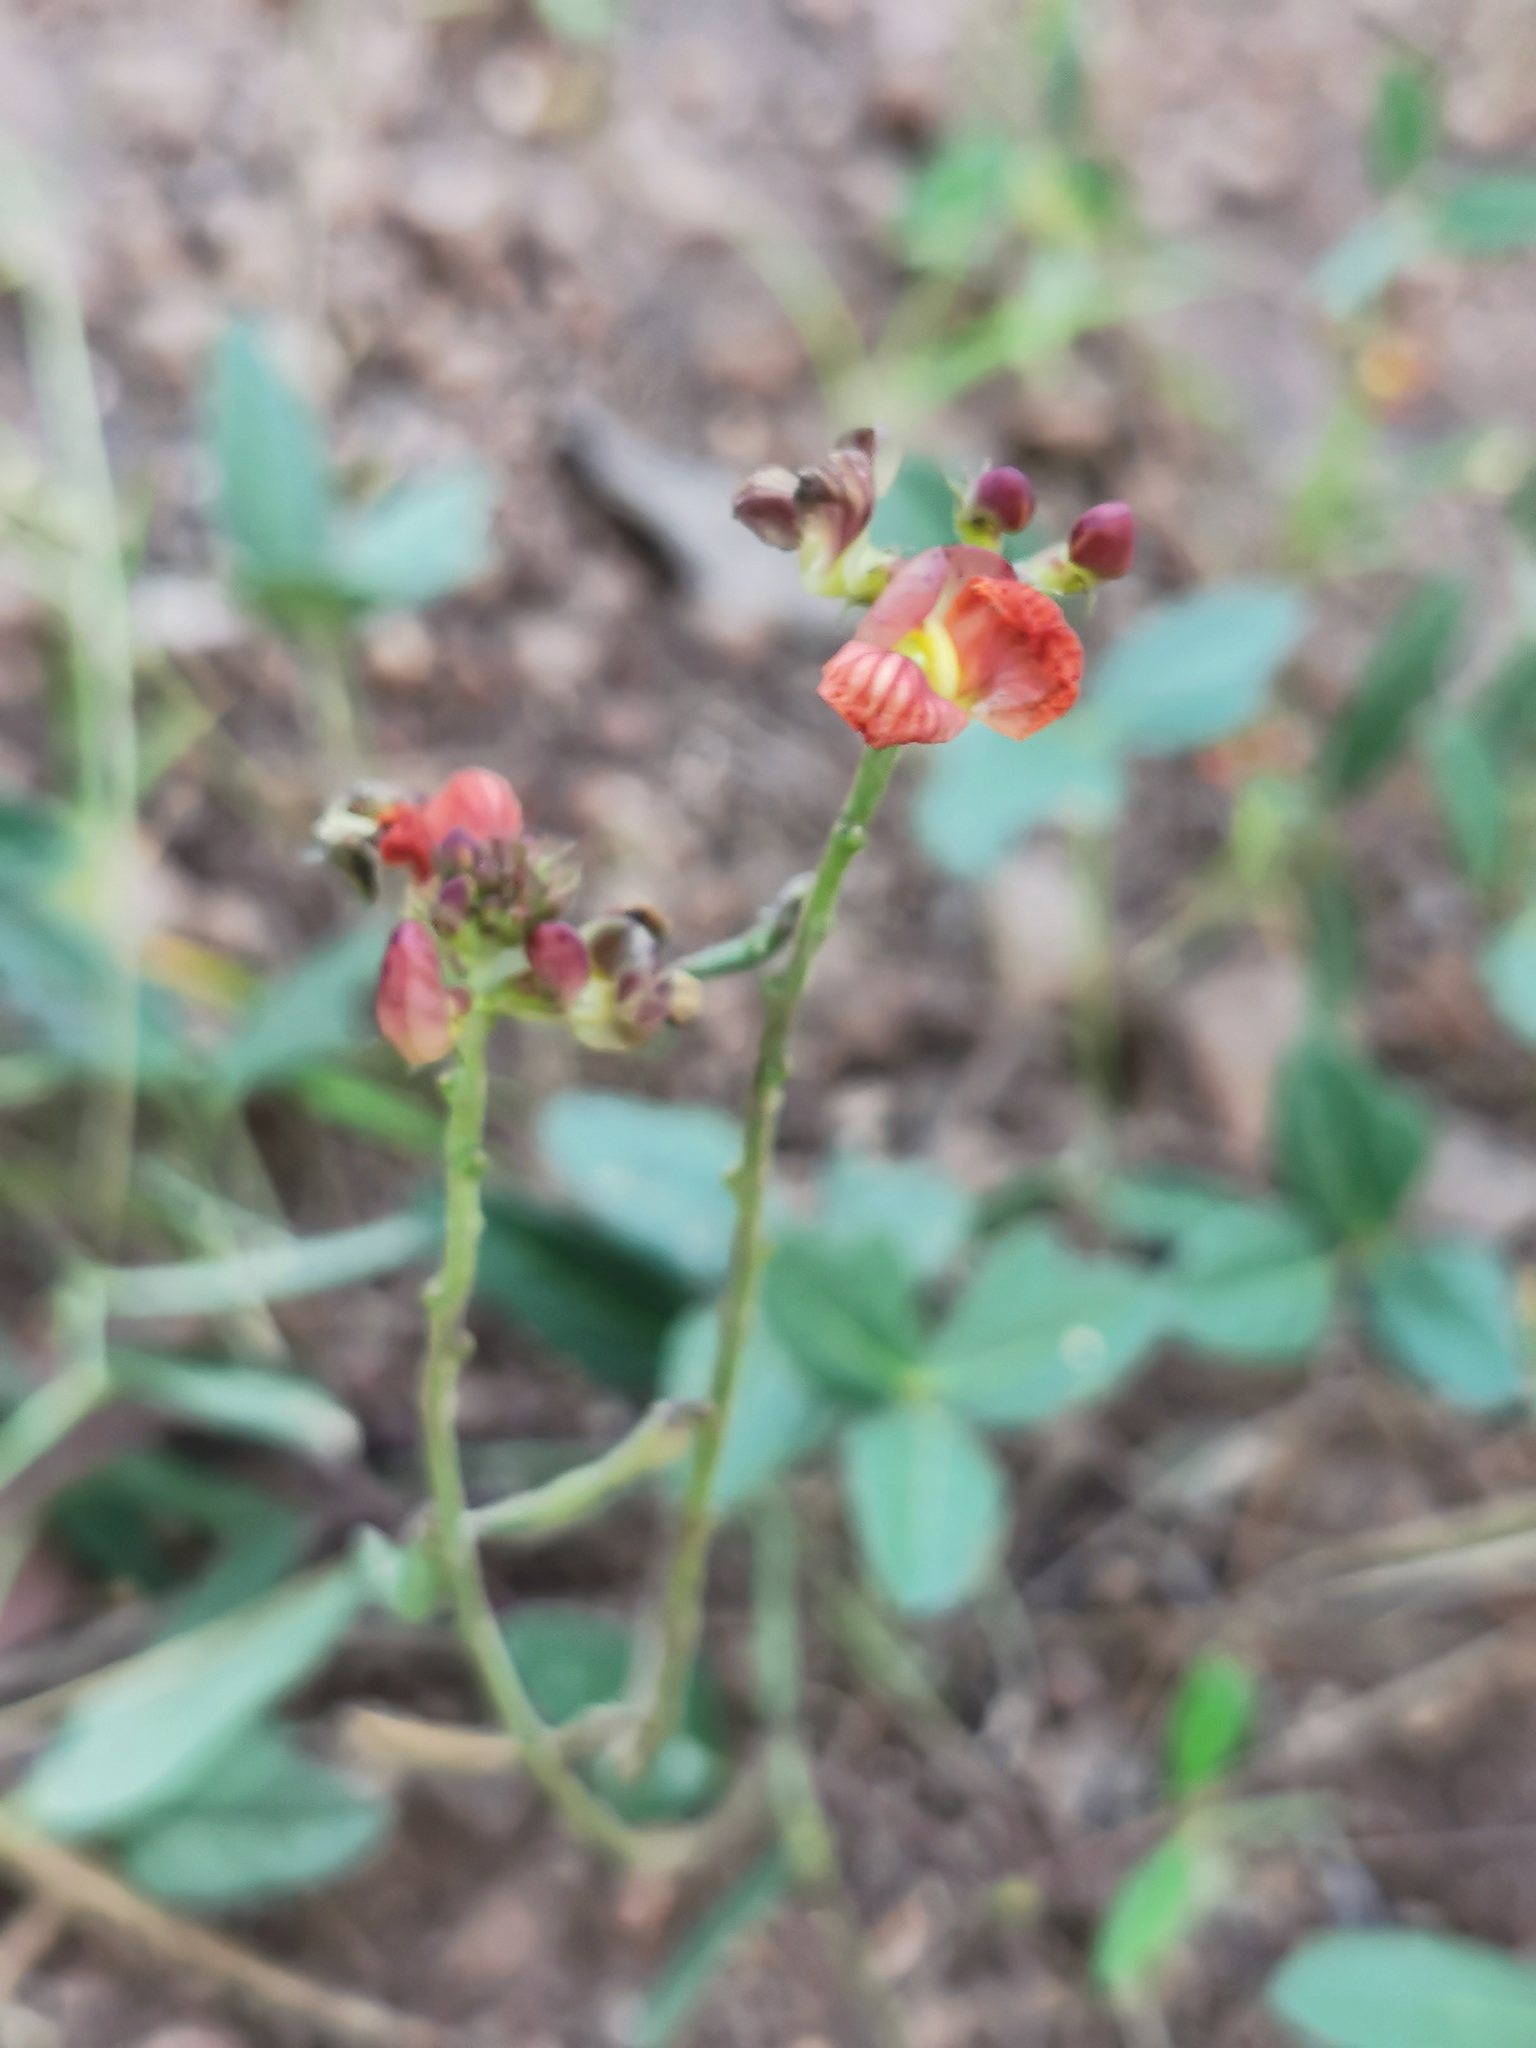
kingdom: Plantae
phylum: Tracheophyta
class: Magnoliopsida
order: Fabales
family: Fabaceae
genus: Macroptilium
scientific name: Macroptilium gibbosifolium
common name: Variableleaf bushbean
